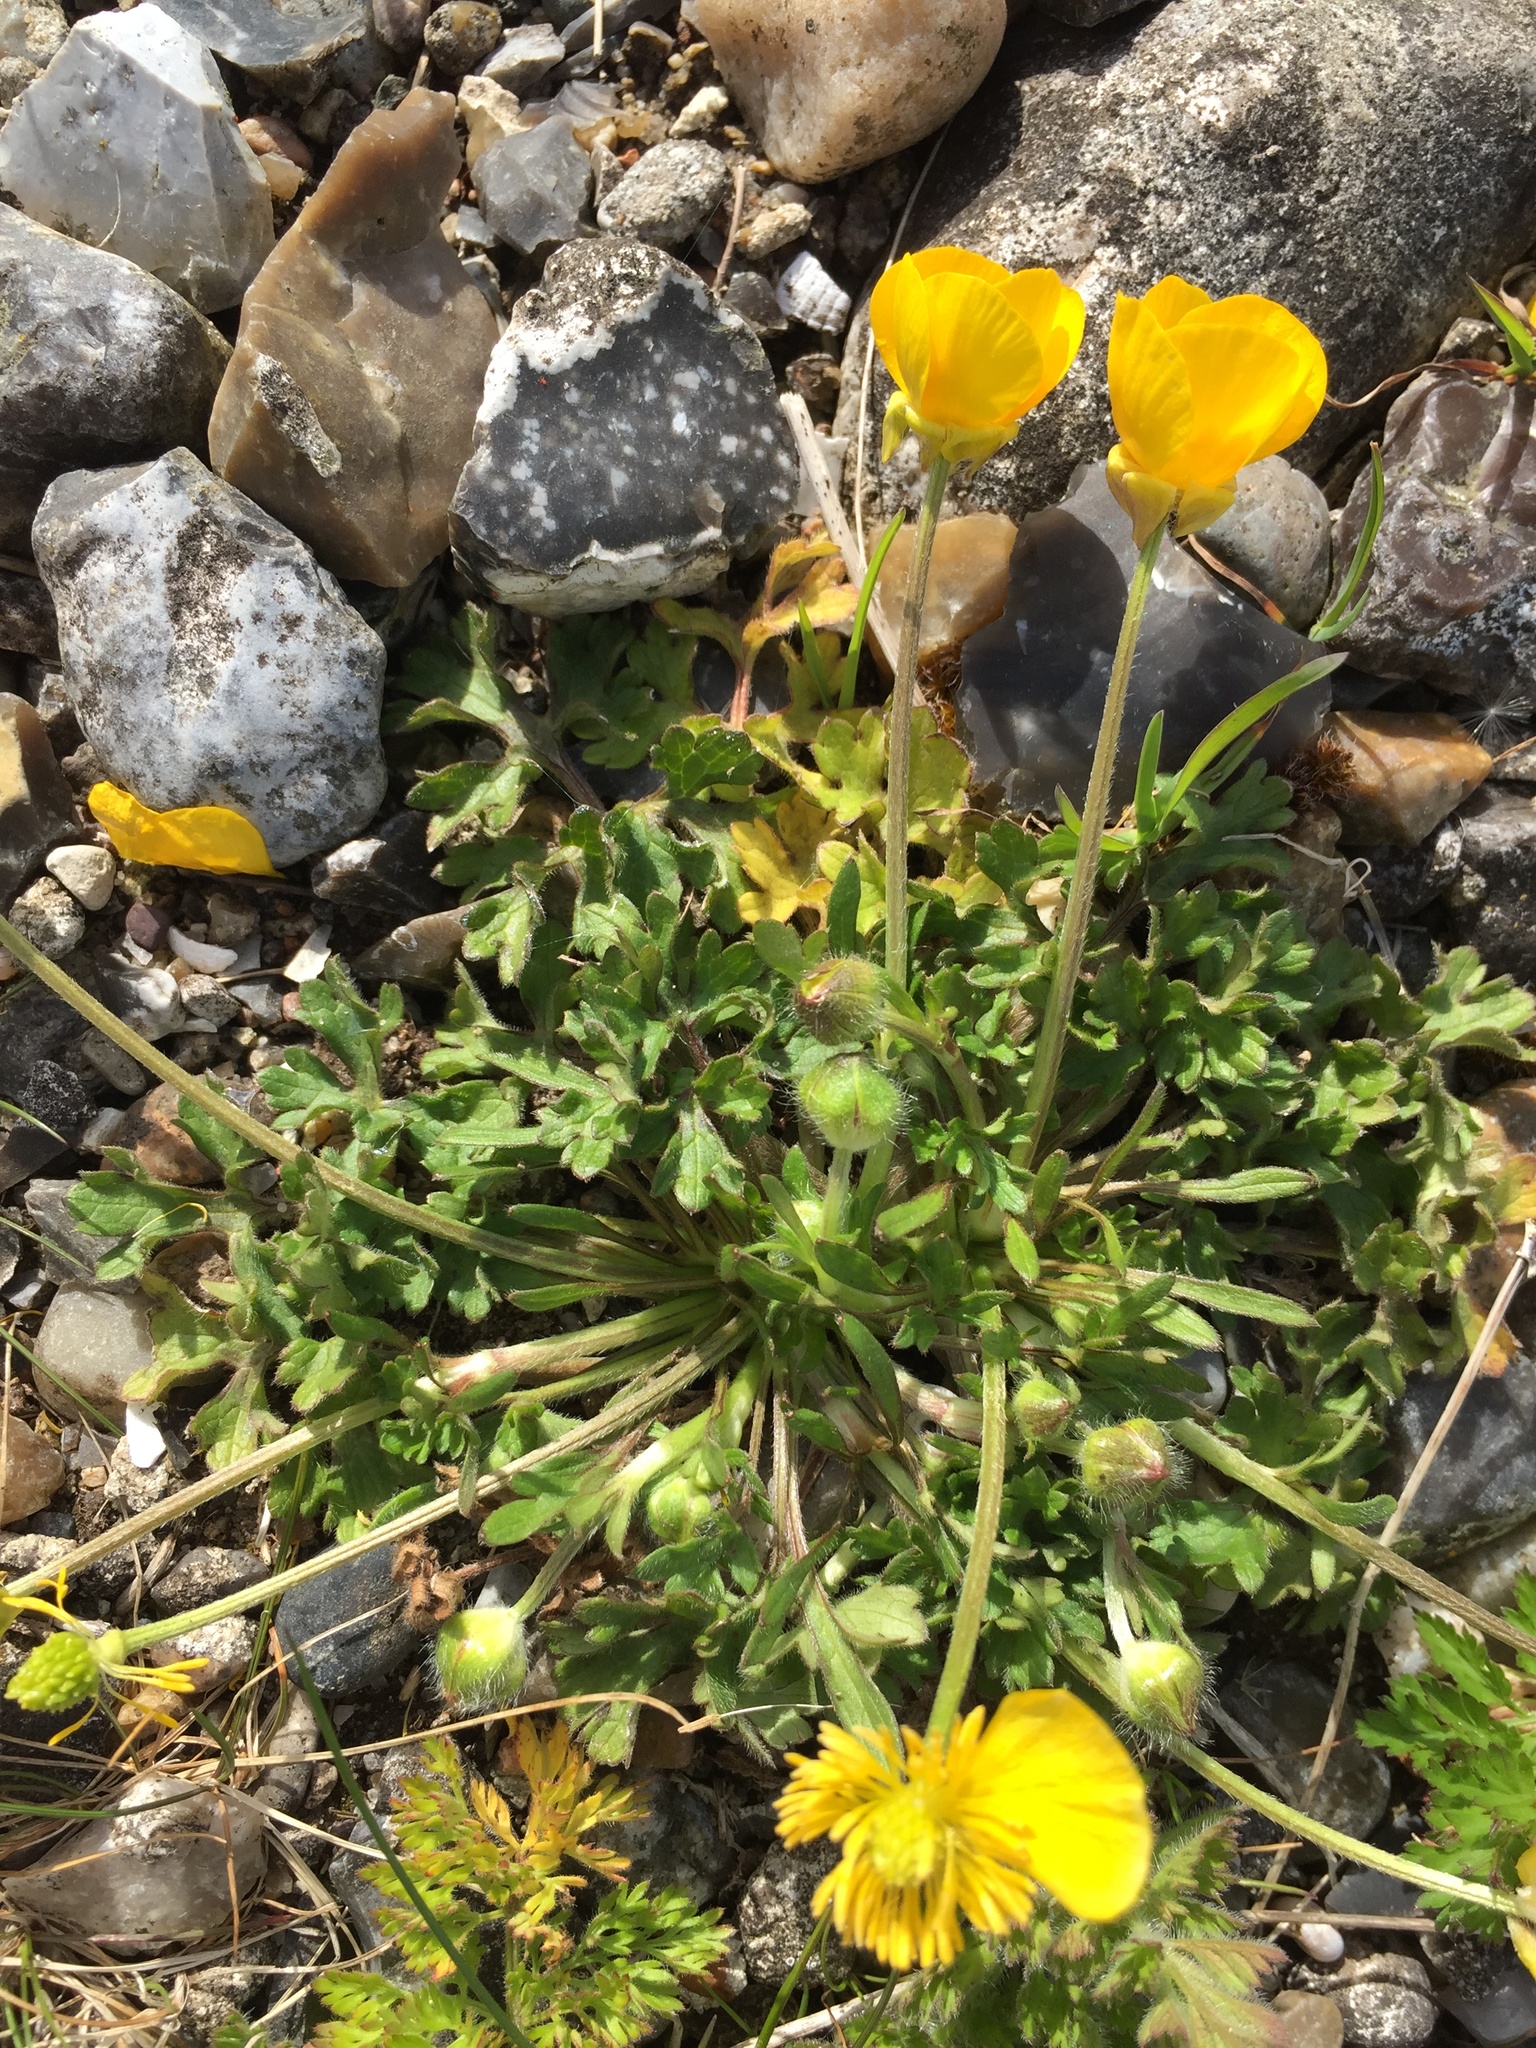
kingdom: Plantae
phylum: Tracheophyta
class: Magnoliopsida
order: Ranunculales
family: Ranunculaceae
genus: Ranunculus
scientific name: Ranunculus bulbosus
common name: Bulbous buttercup
